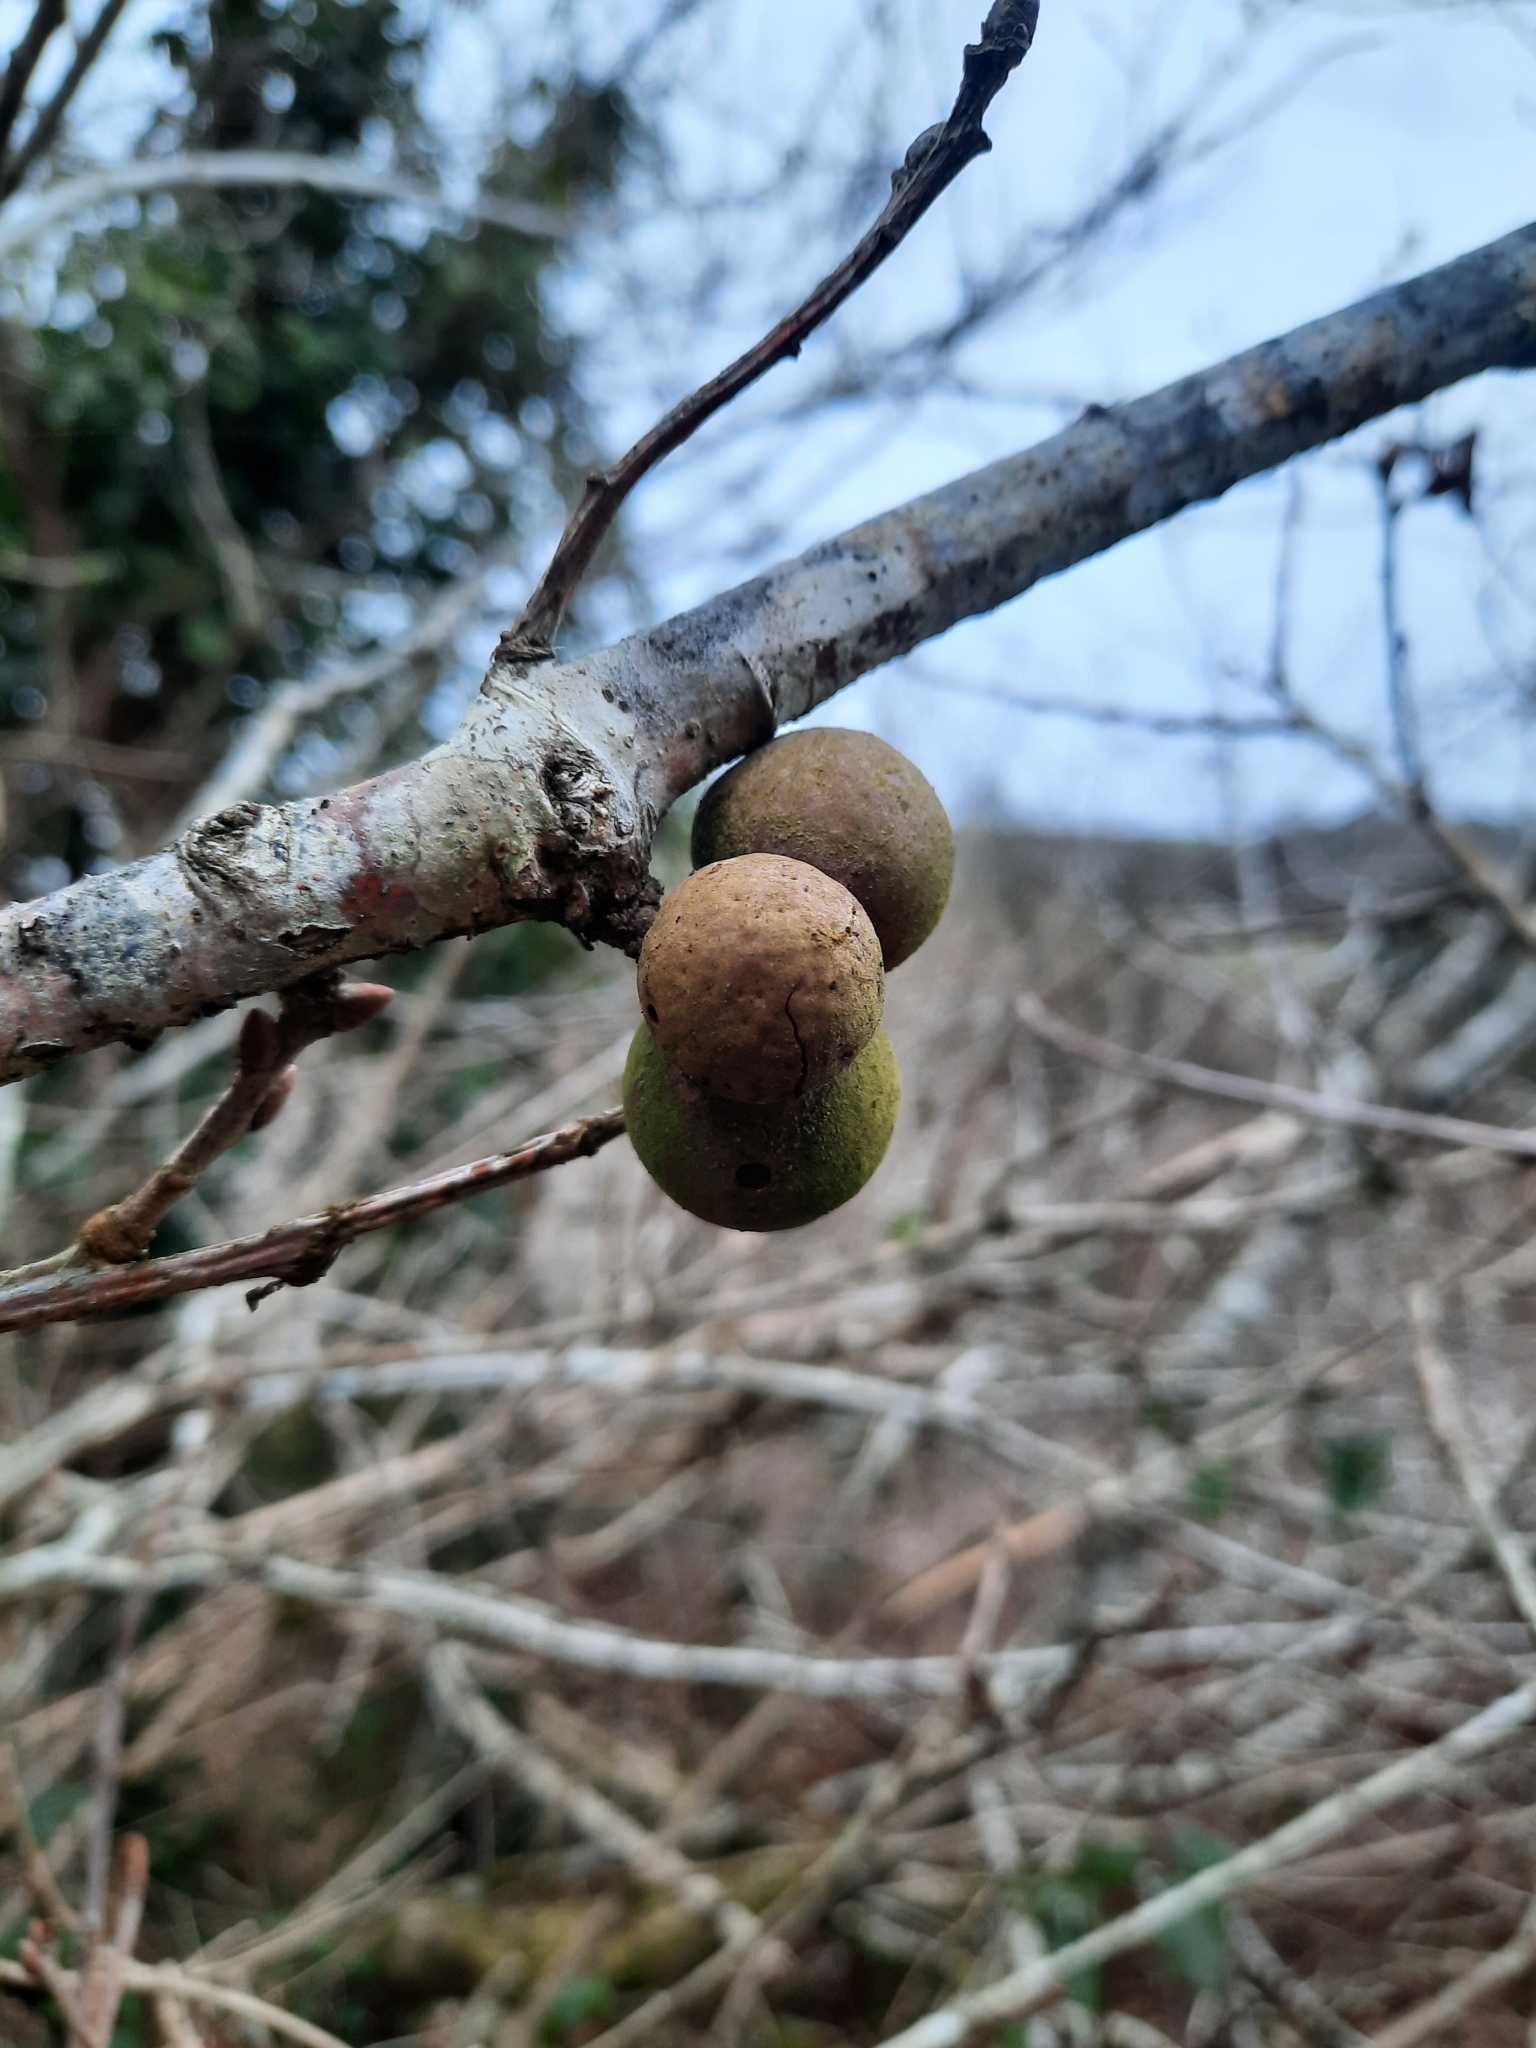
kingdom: Animalia
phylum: Arthropoda
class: Insecta
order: Hymenoptera
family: Cynipidae
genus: Andricus
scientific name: Andricus kollari
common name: Marble gall
